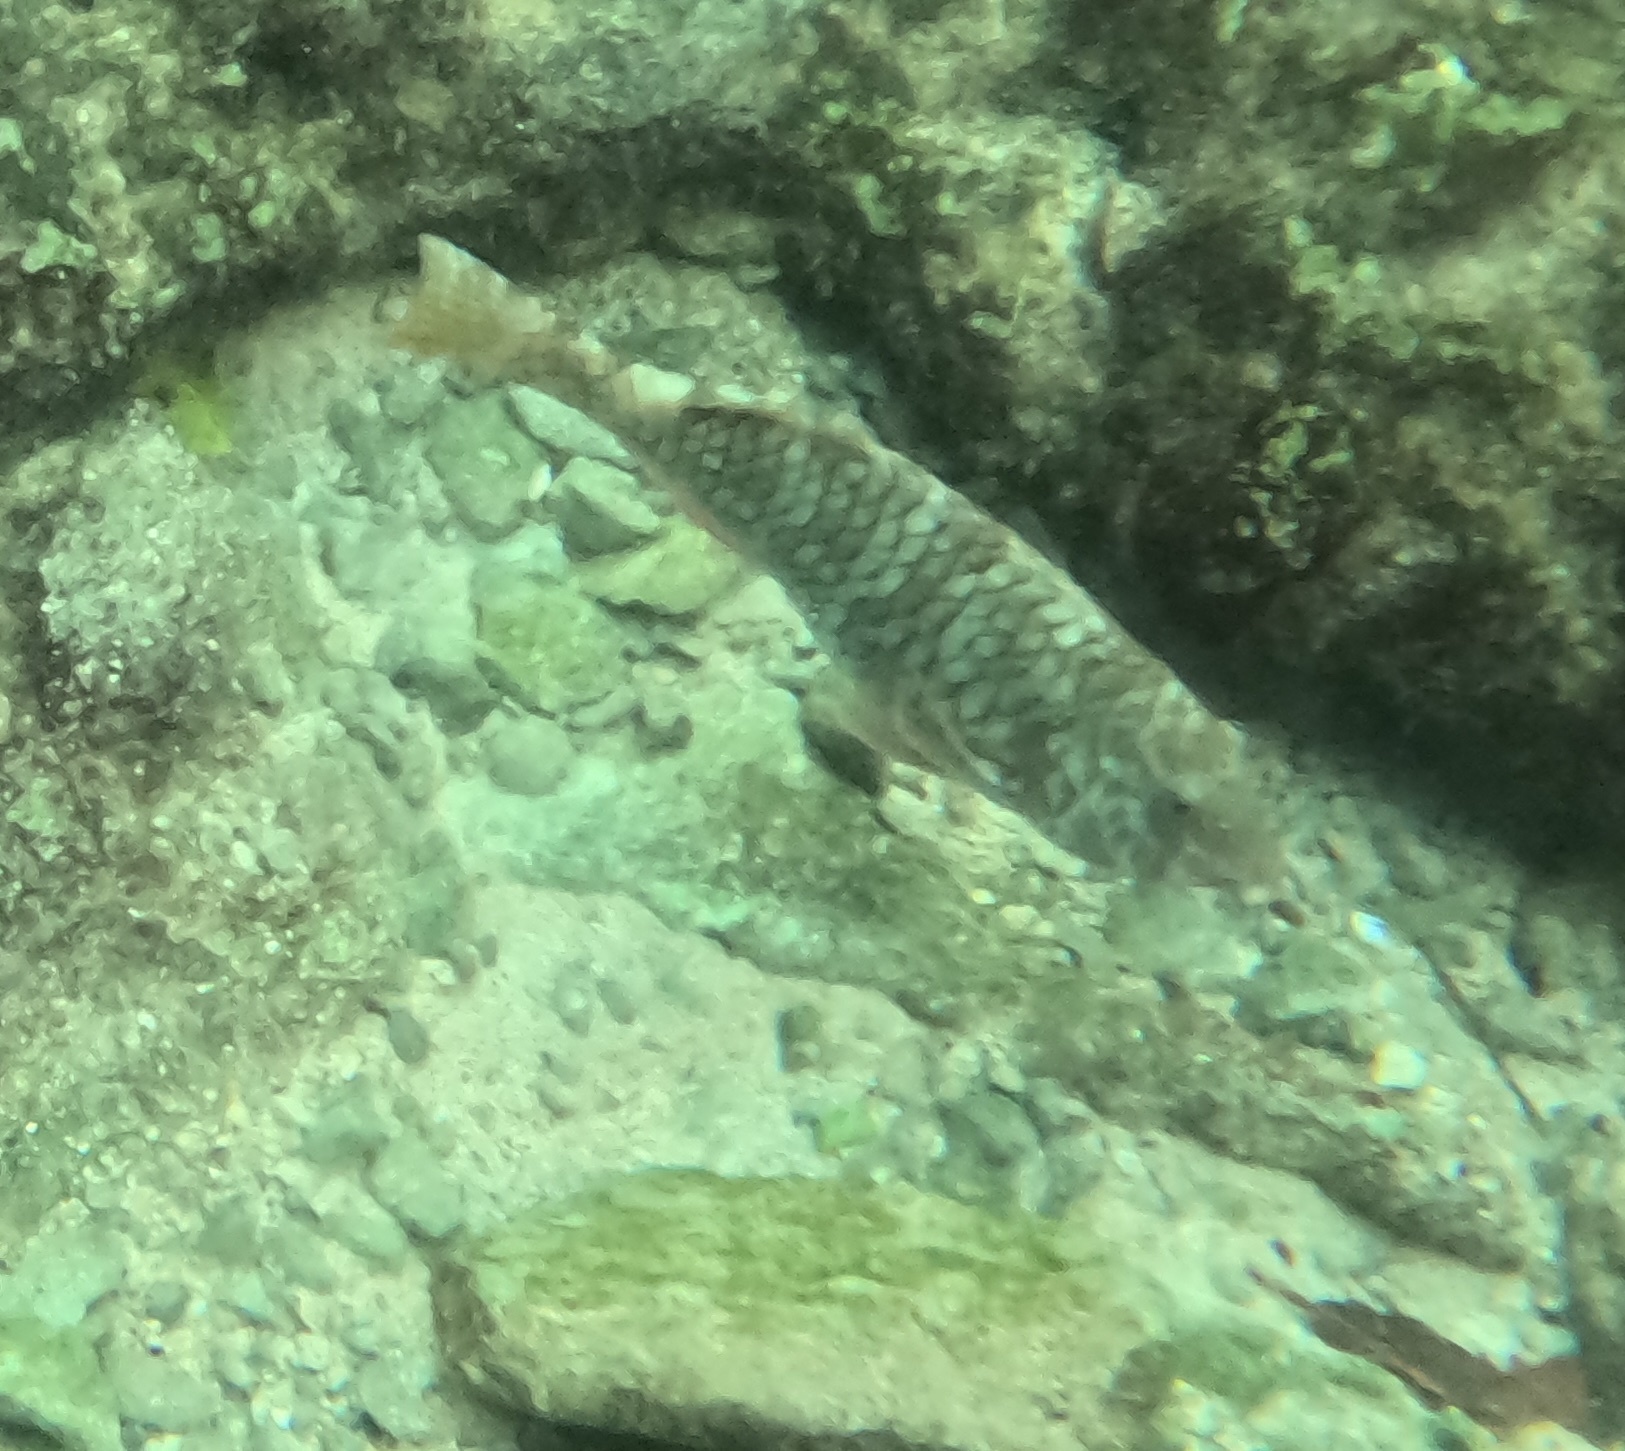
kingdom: Animalia
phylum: Chordata
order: Perciformes
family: Scaridae
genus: Sparisoma
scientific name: Sparisoma rubripinne
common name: Redfin parrotfish
